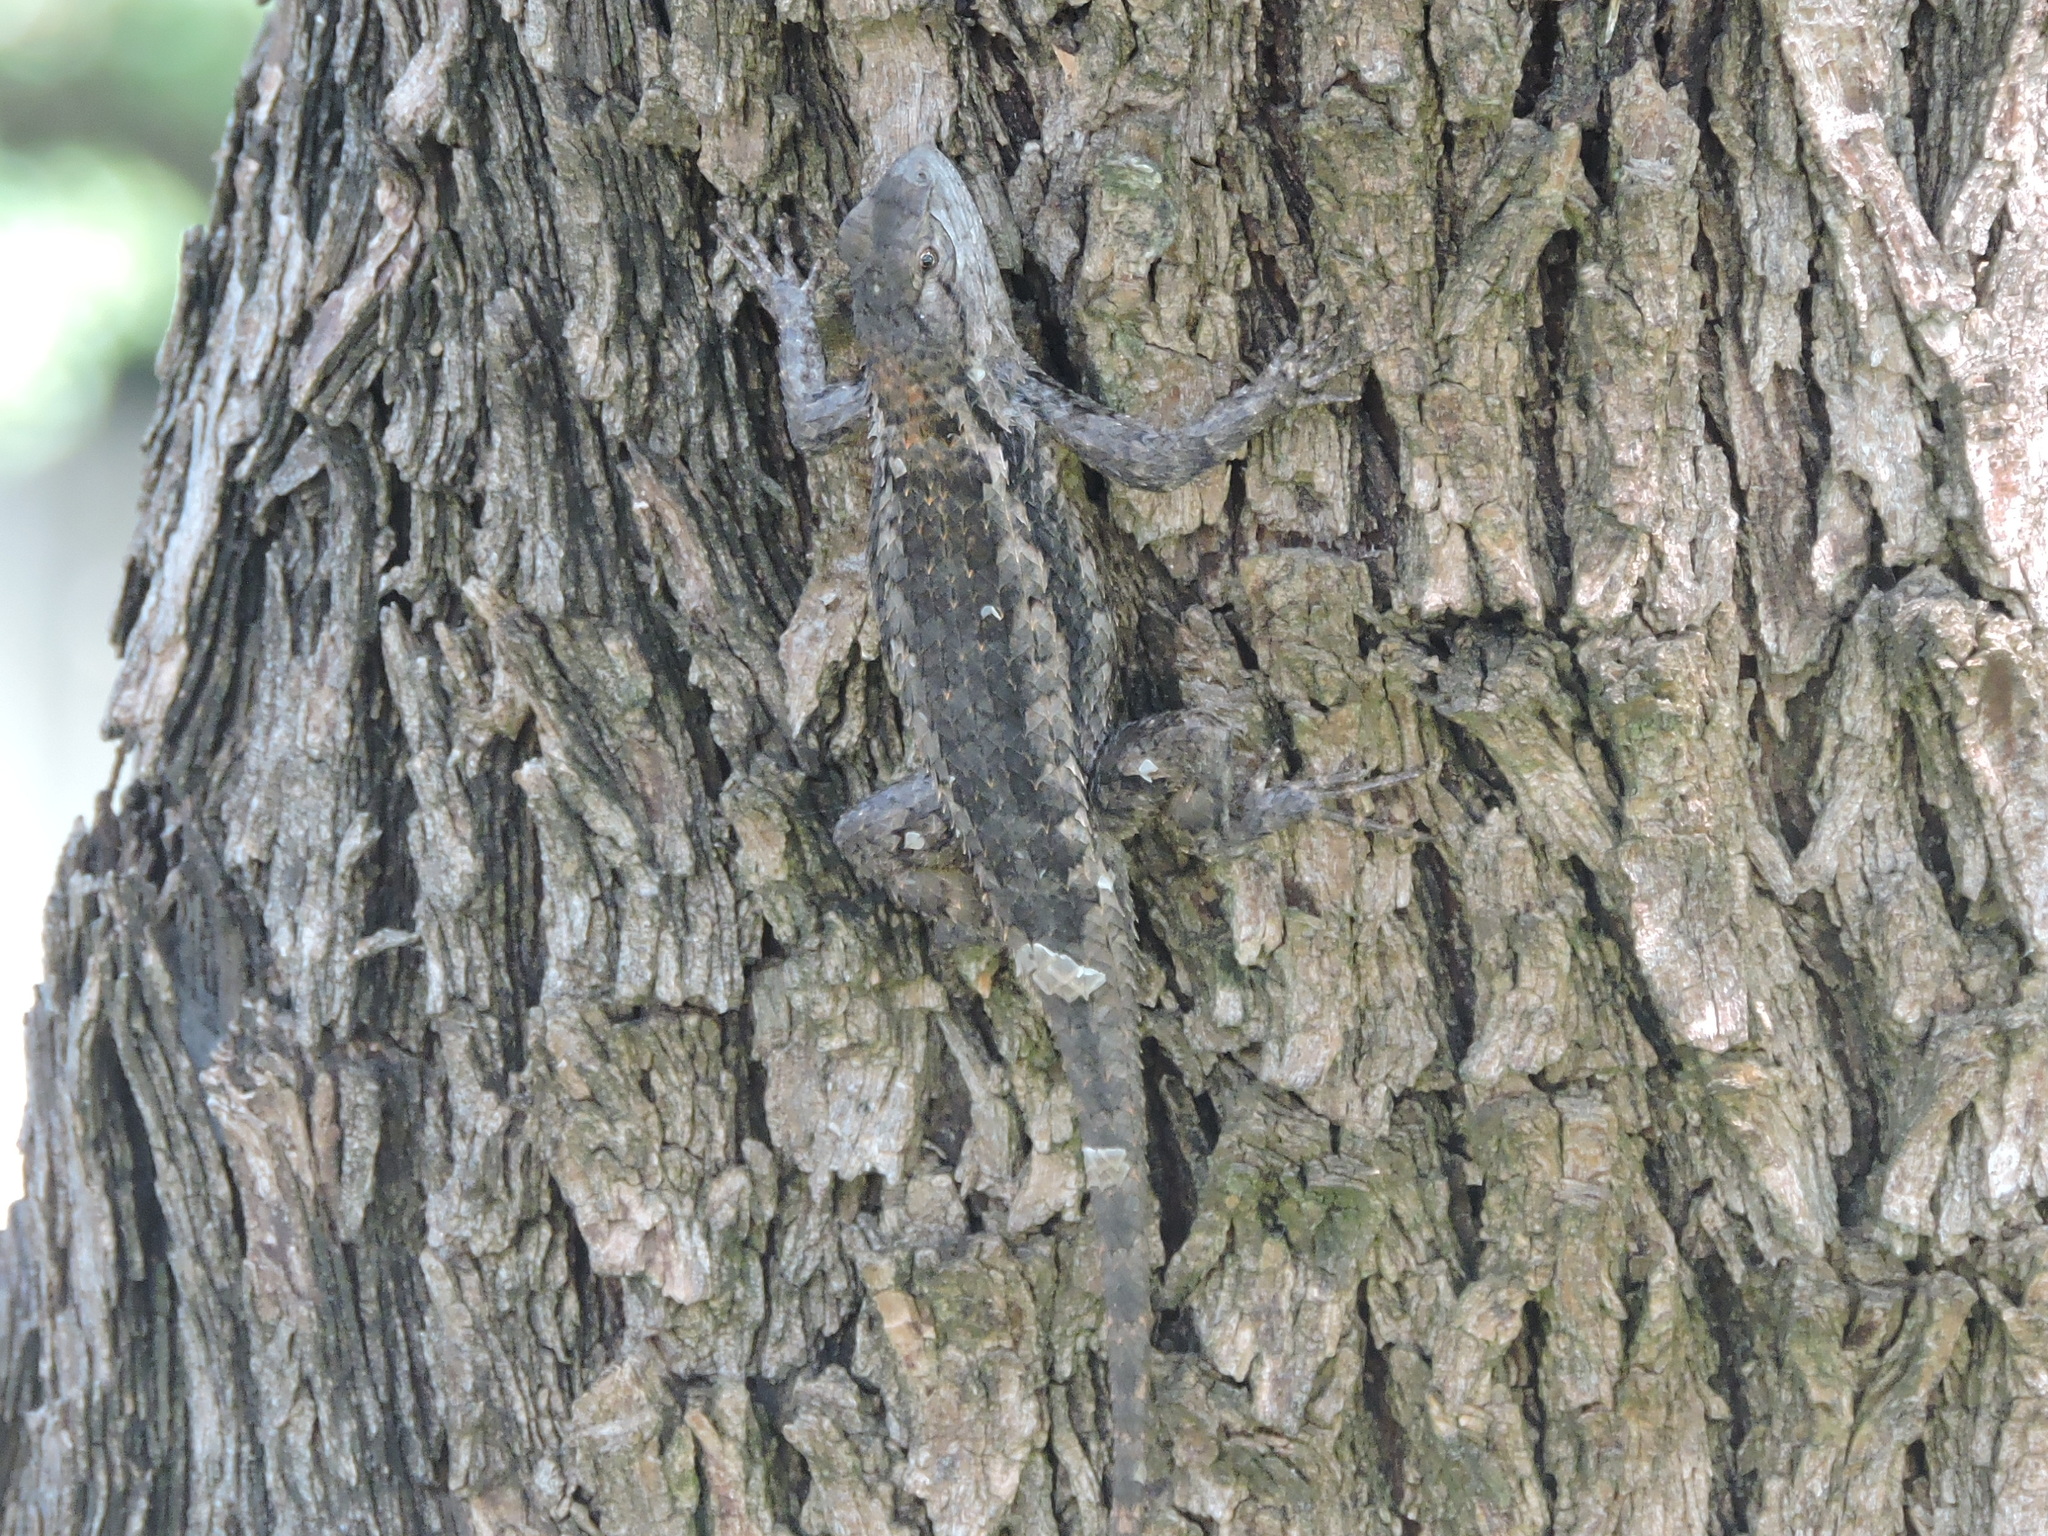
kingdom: Animalia
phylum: Chordata
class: Squamata
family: Phrynosomatidae
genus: Sceloporus
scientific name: Sceloporus olivaceus
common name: Texas spiny lizard
